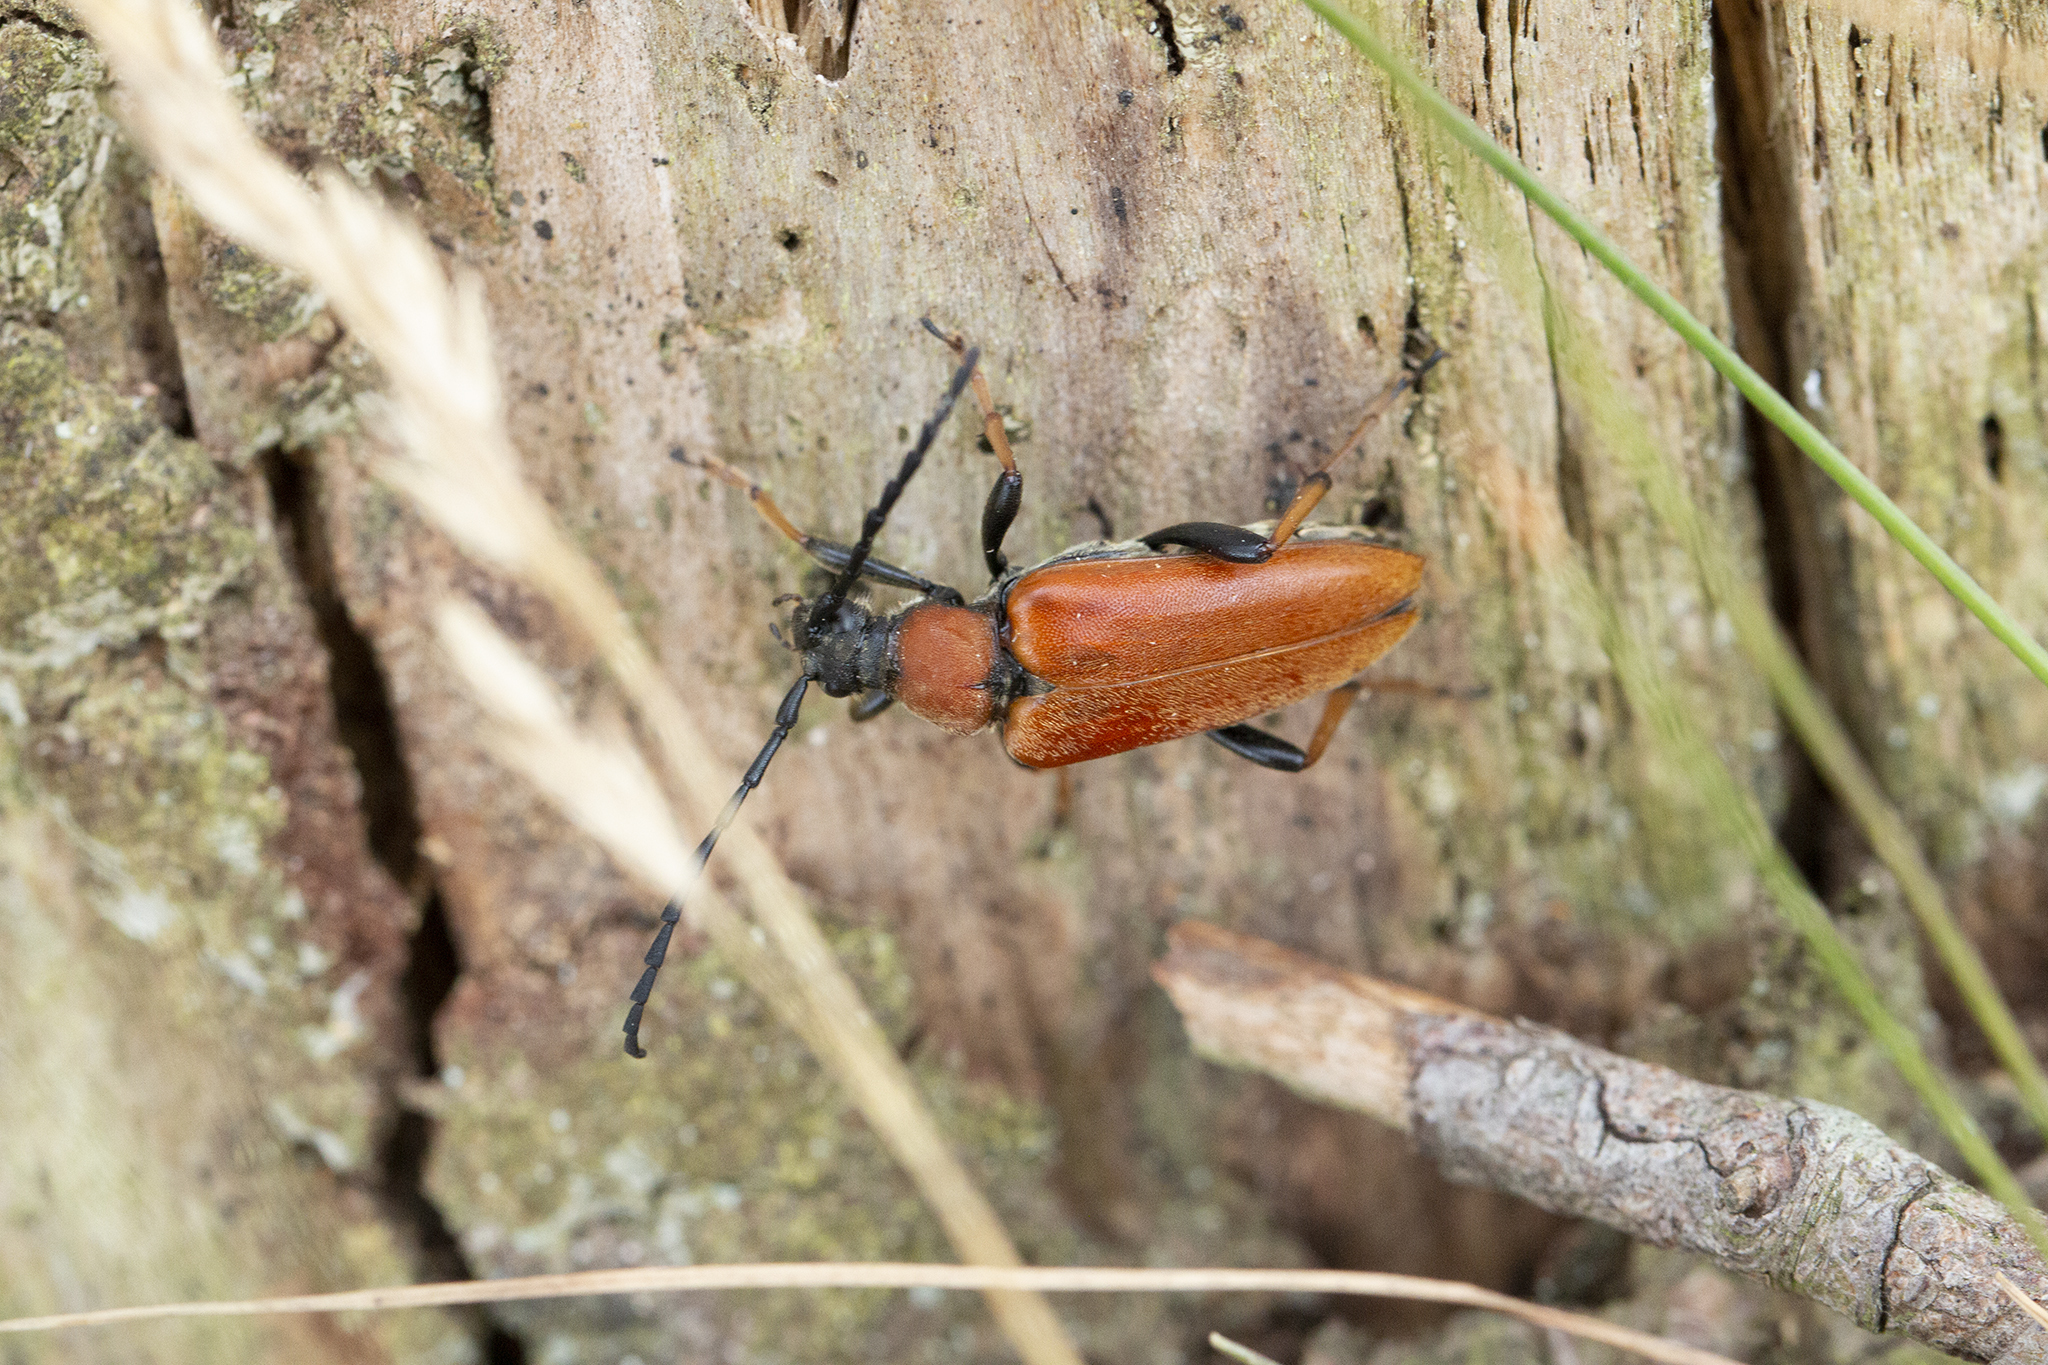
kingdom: Animalia
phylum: Arthropoda
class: Insecta
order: Coleoptera
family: Cerambycidae
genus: Stictoleptura
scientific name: Stictoleptura rubra
